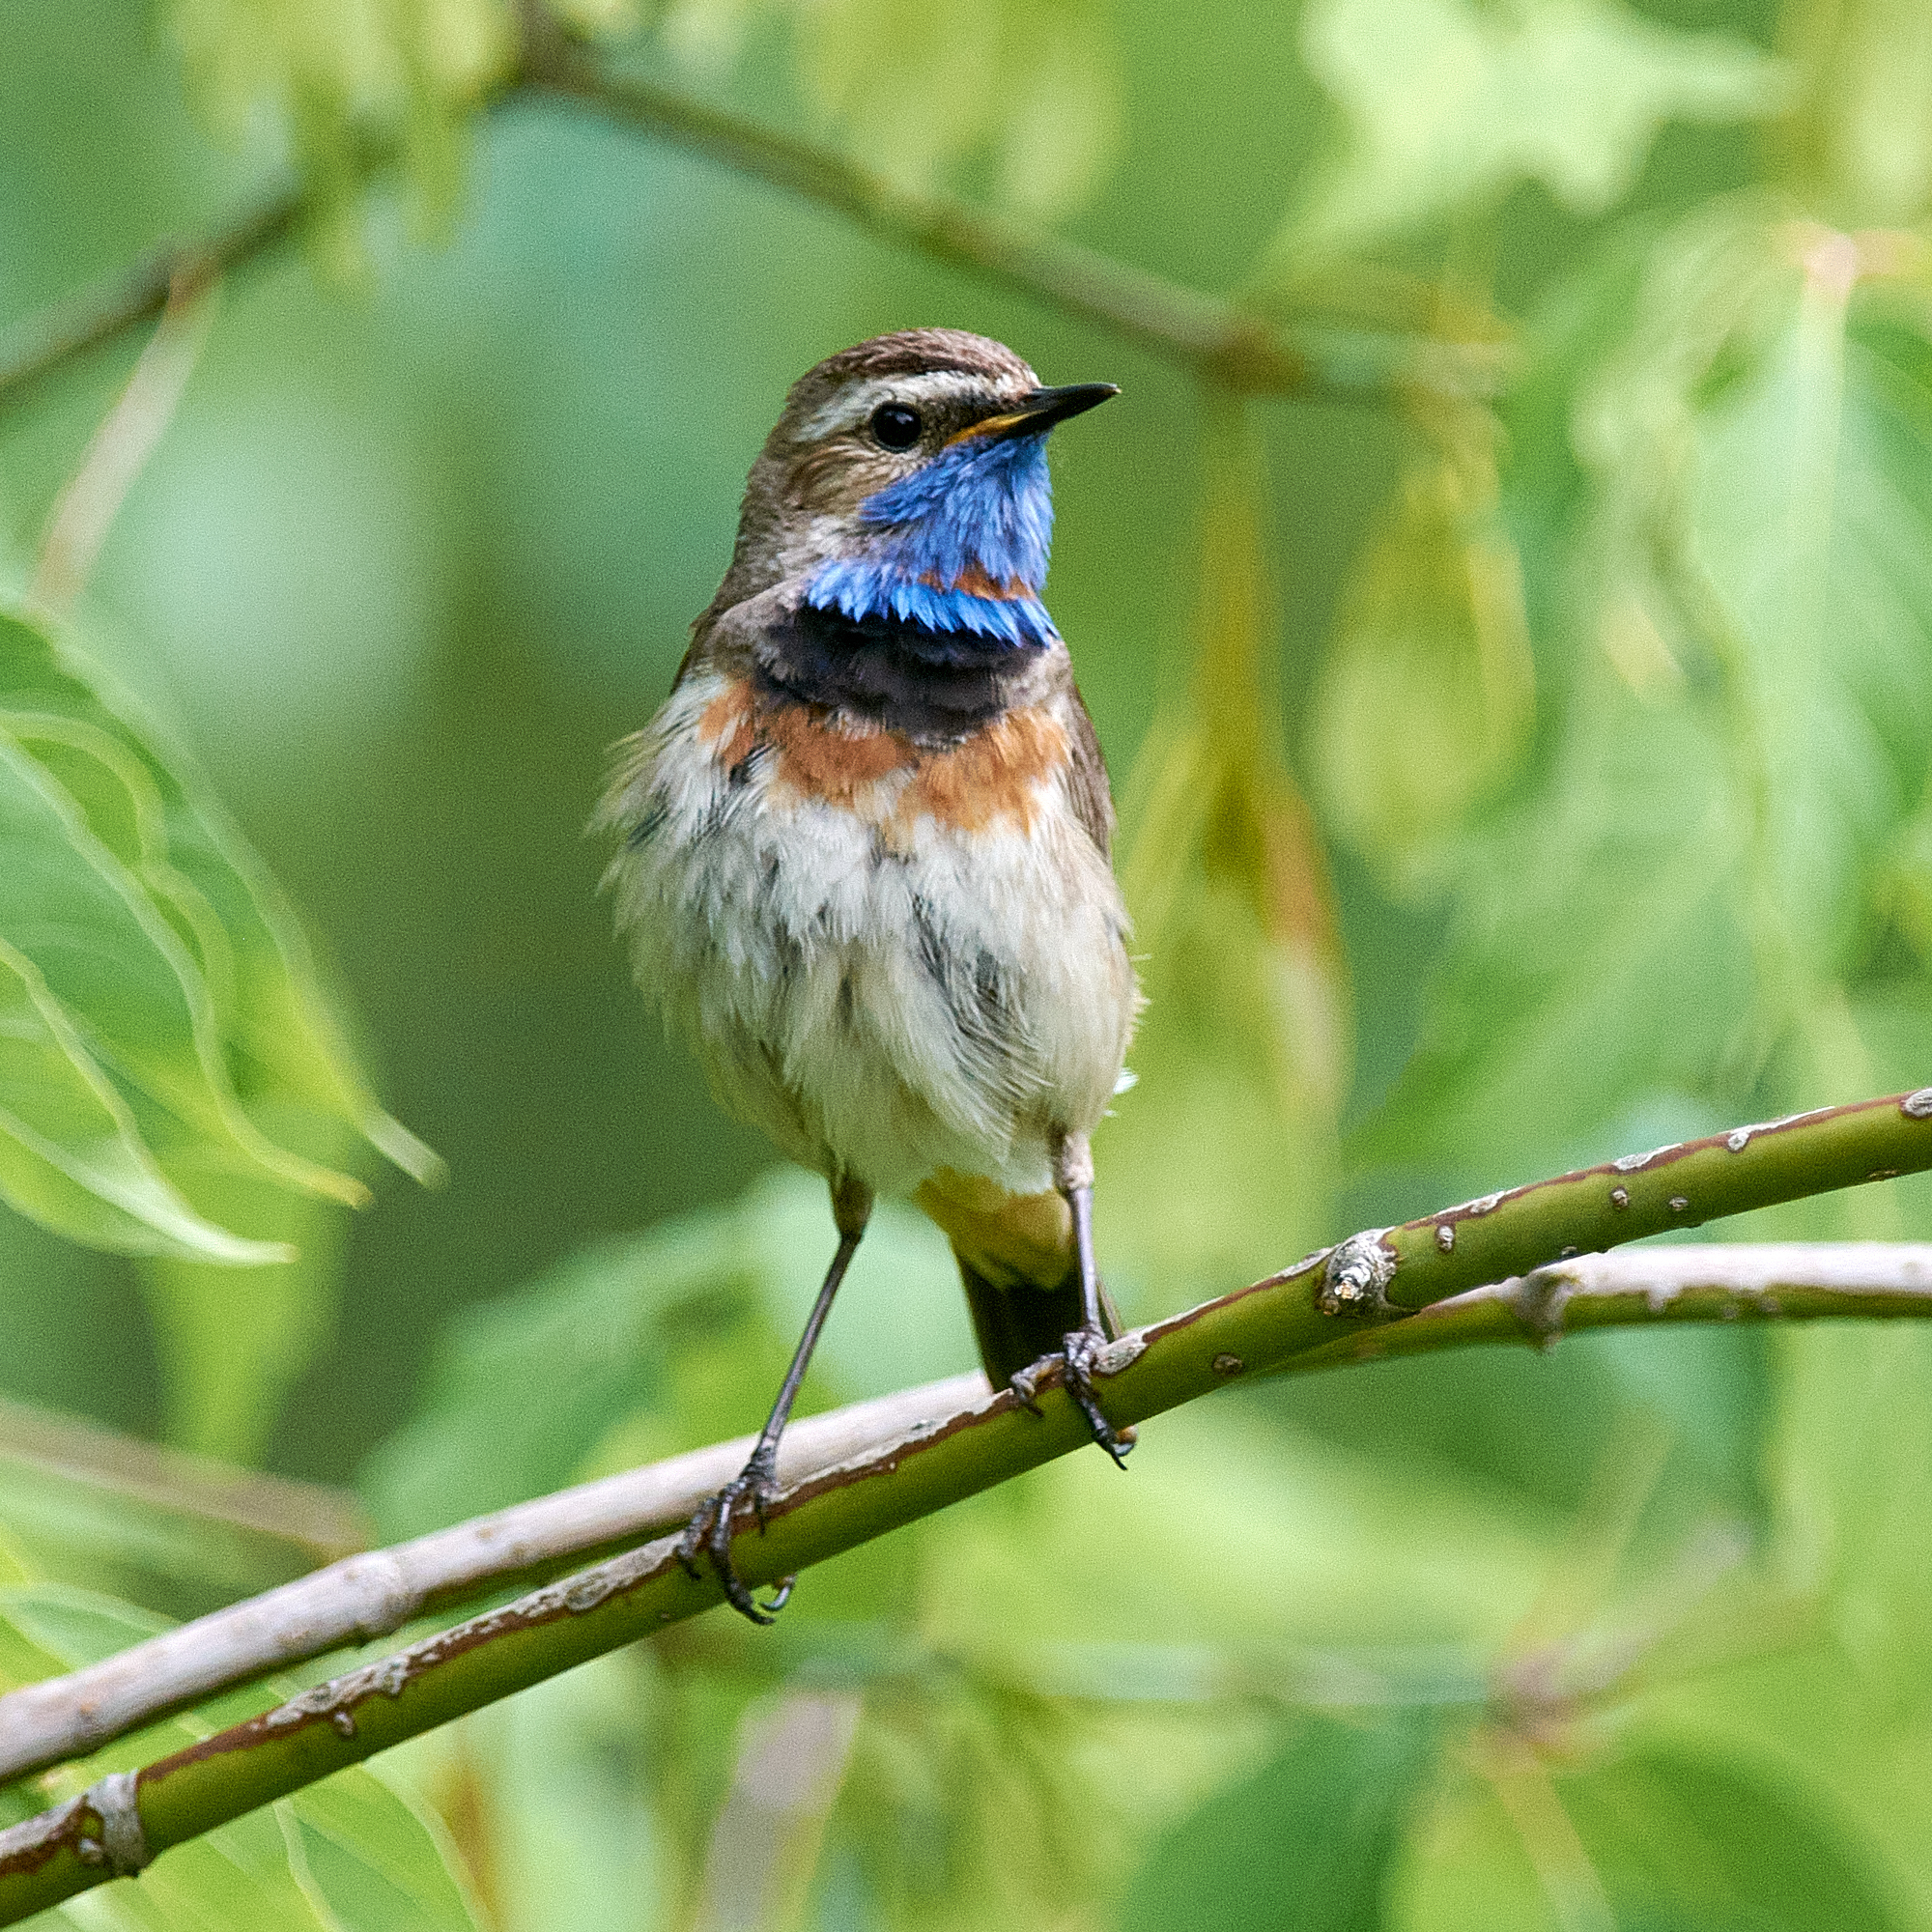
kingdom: Animalia
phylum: Chordata
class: Aves
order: Passeriformes
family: Muscicapidae
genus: Luscinia
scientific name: Luscinia svecica
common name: Bluethroat
